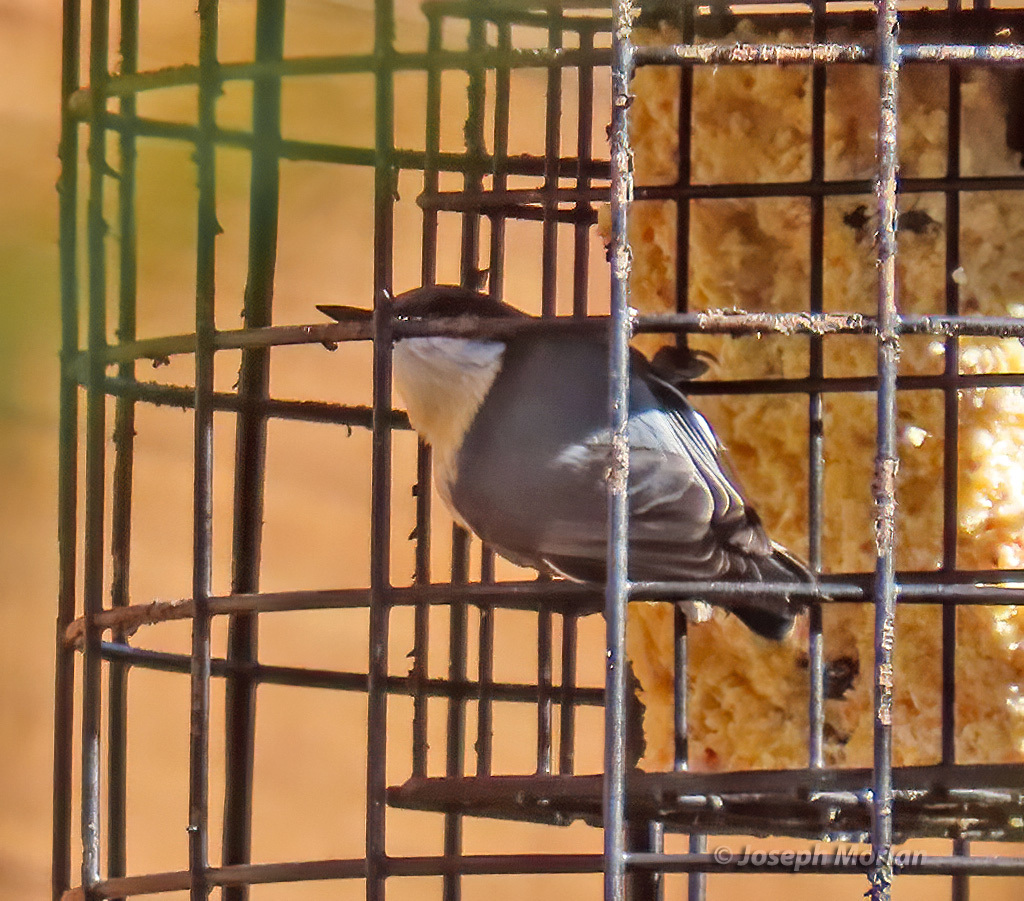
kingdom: Animalia
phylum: Chordata
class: Aves
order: Passeriformes
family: Sittidae
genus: Sitta
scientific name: Sitta pygmaea
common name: Pygmy nuthatch
